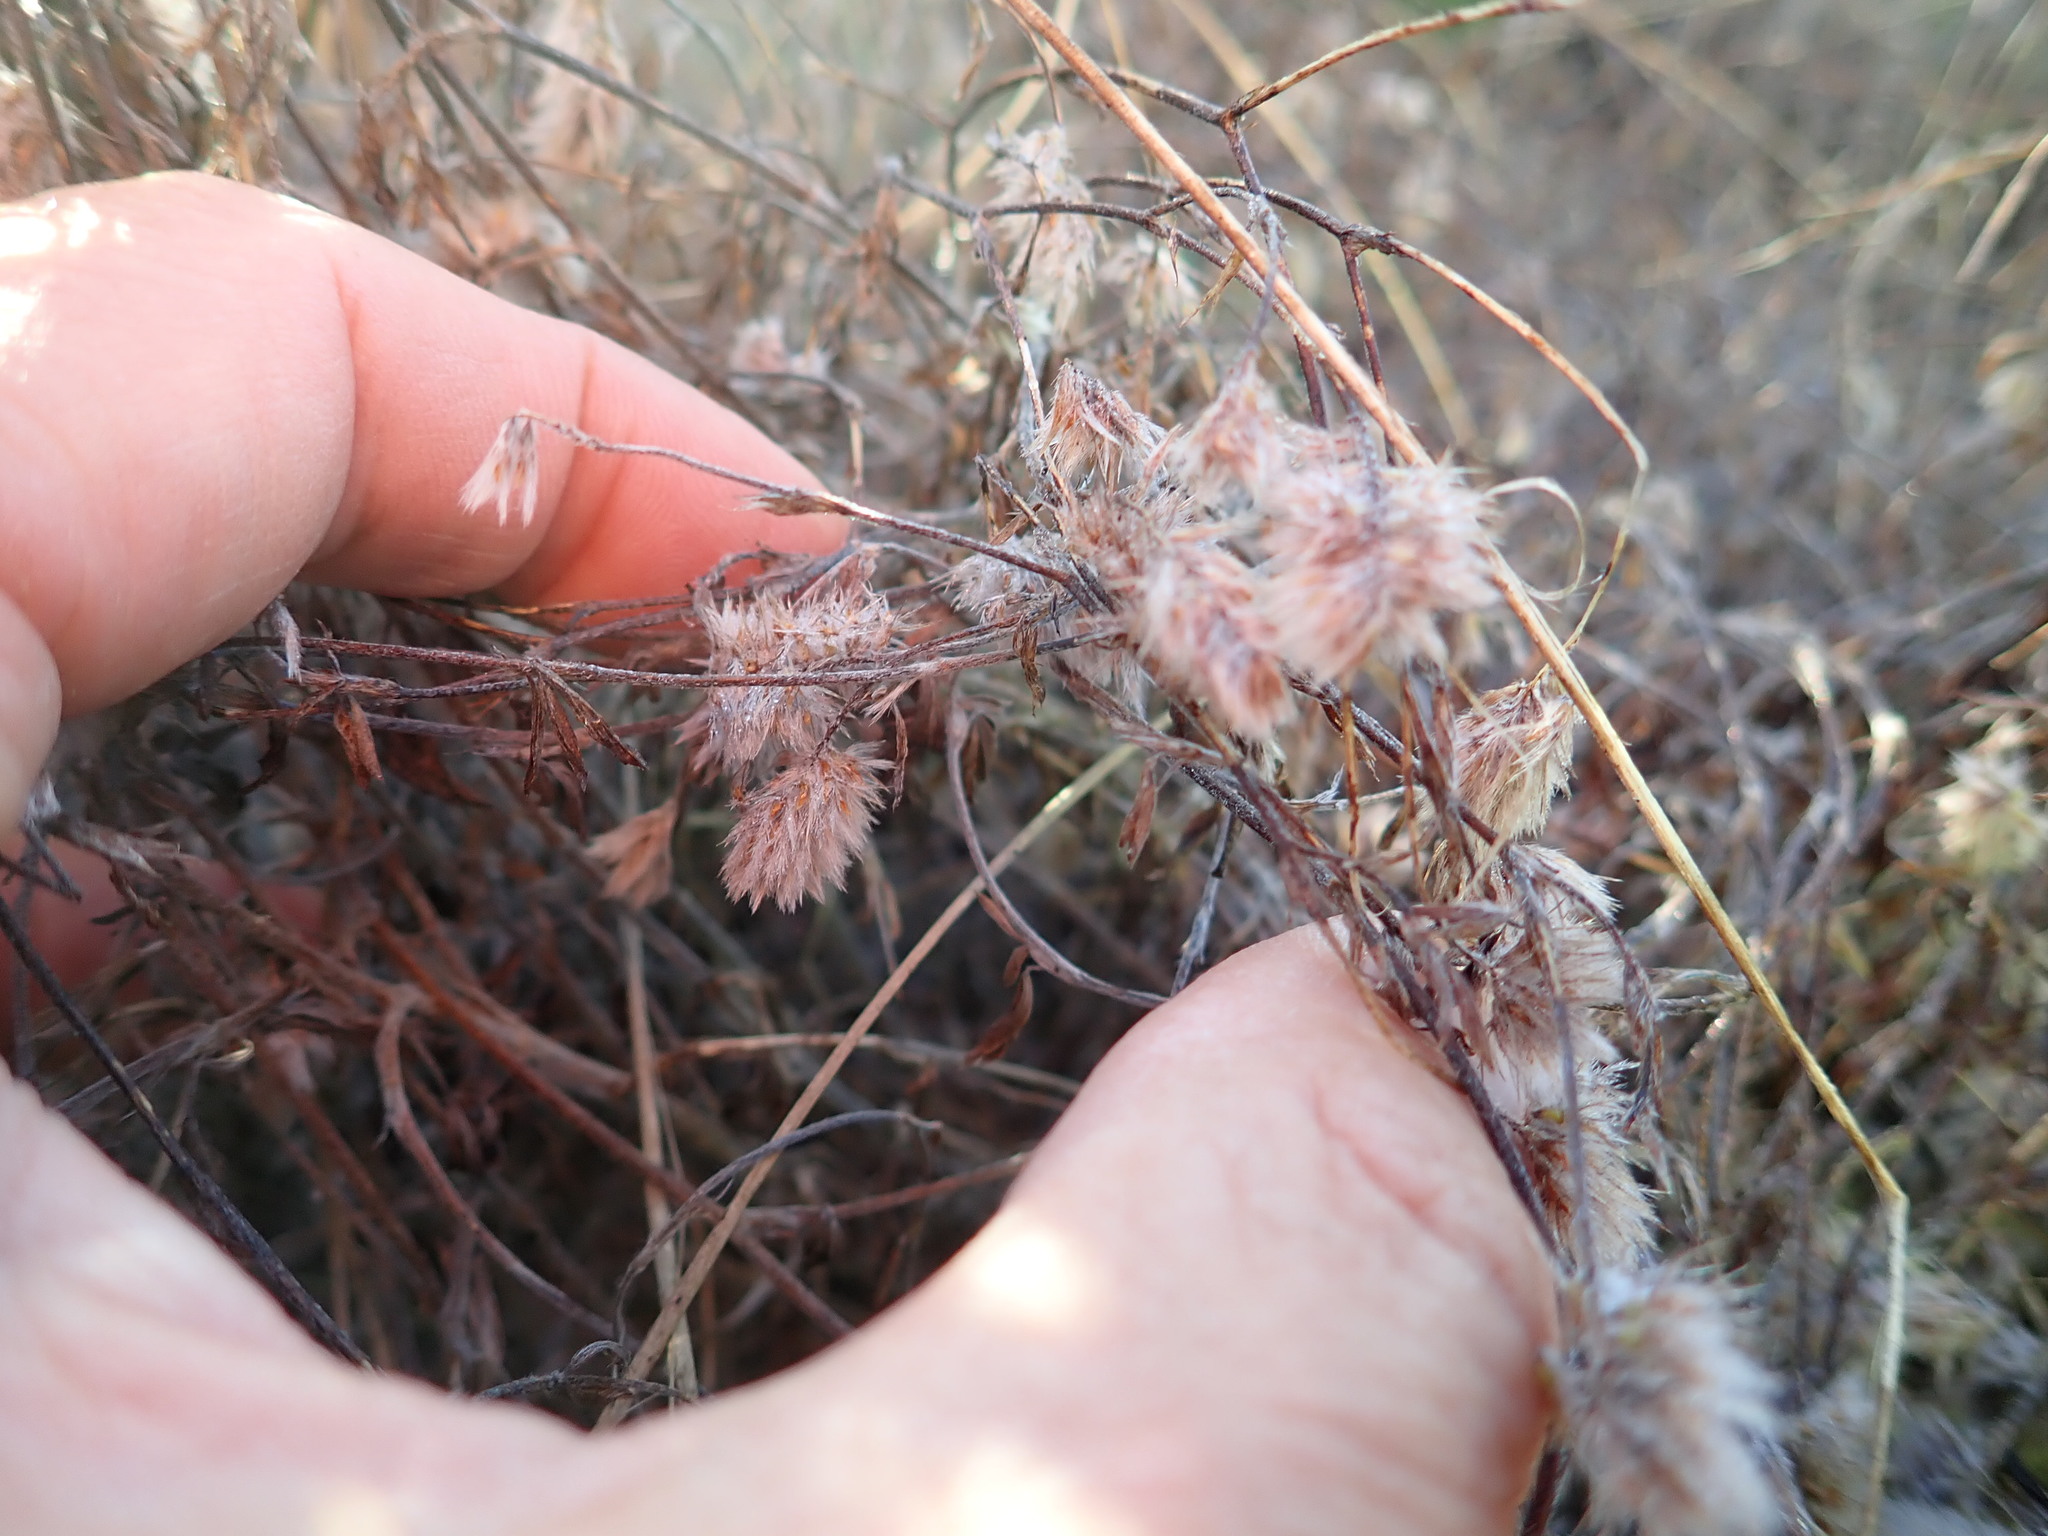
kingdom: Plantae
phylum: Tracheophyta
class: Magnoliopsida
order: Fabales
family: Fabaceae
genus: Trifolium
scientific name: Trifolium arvense
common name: Hare's-foot clover
